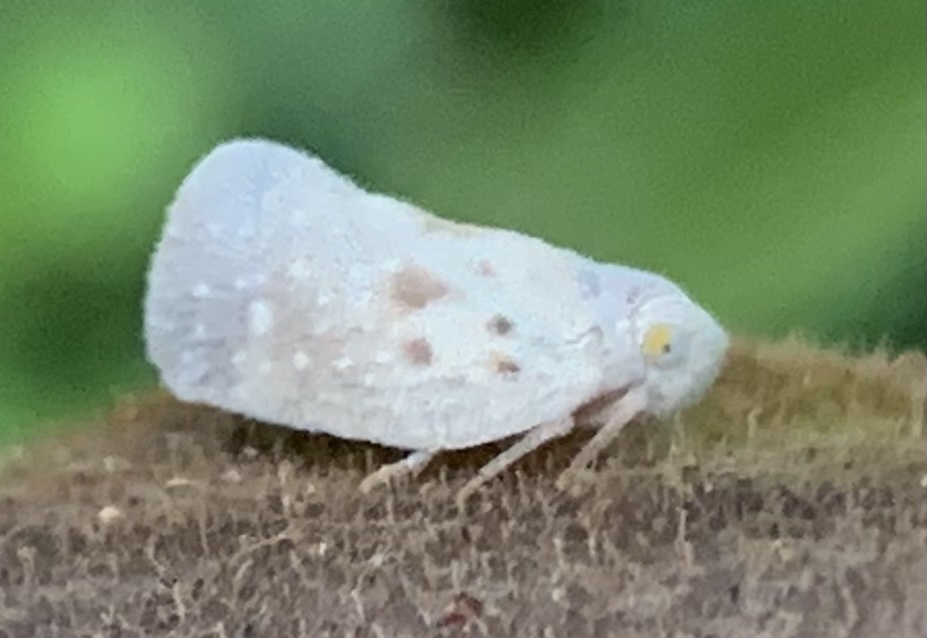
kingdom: Animalia
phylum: Arthropoda
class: Insecta
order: Hemiptera
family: Flatidae
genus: Metcalfa
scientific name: Metcalfa pruinosa
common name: Citrus flatid planthopper
